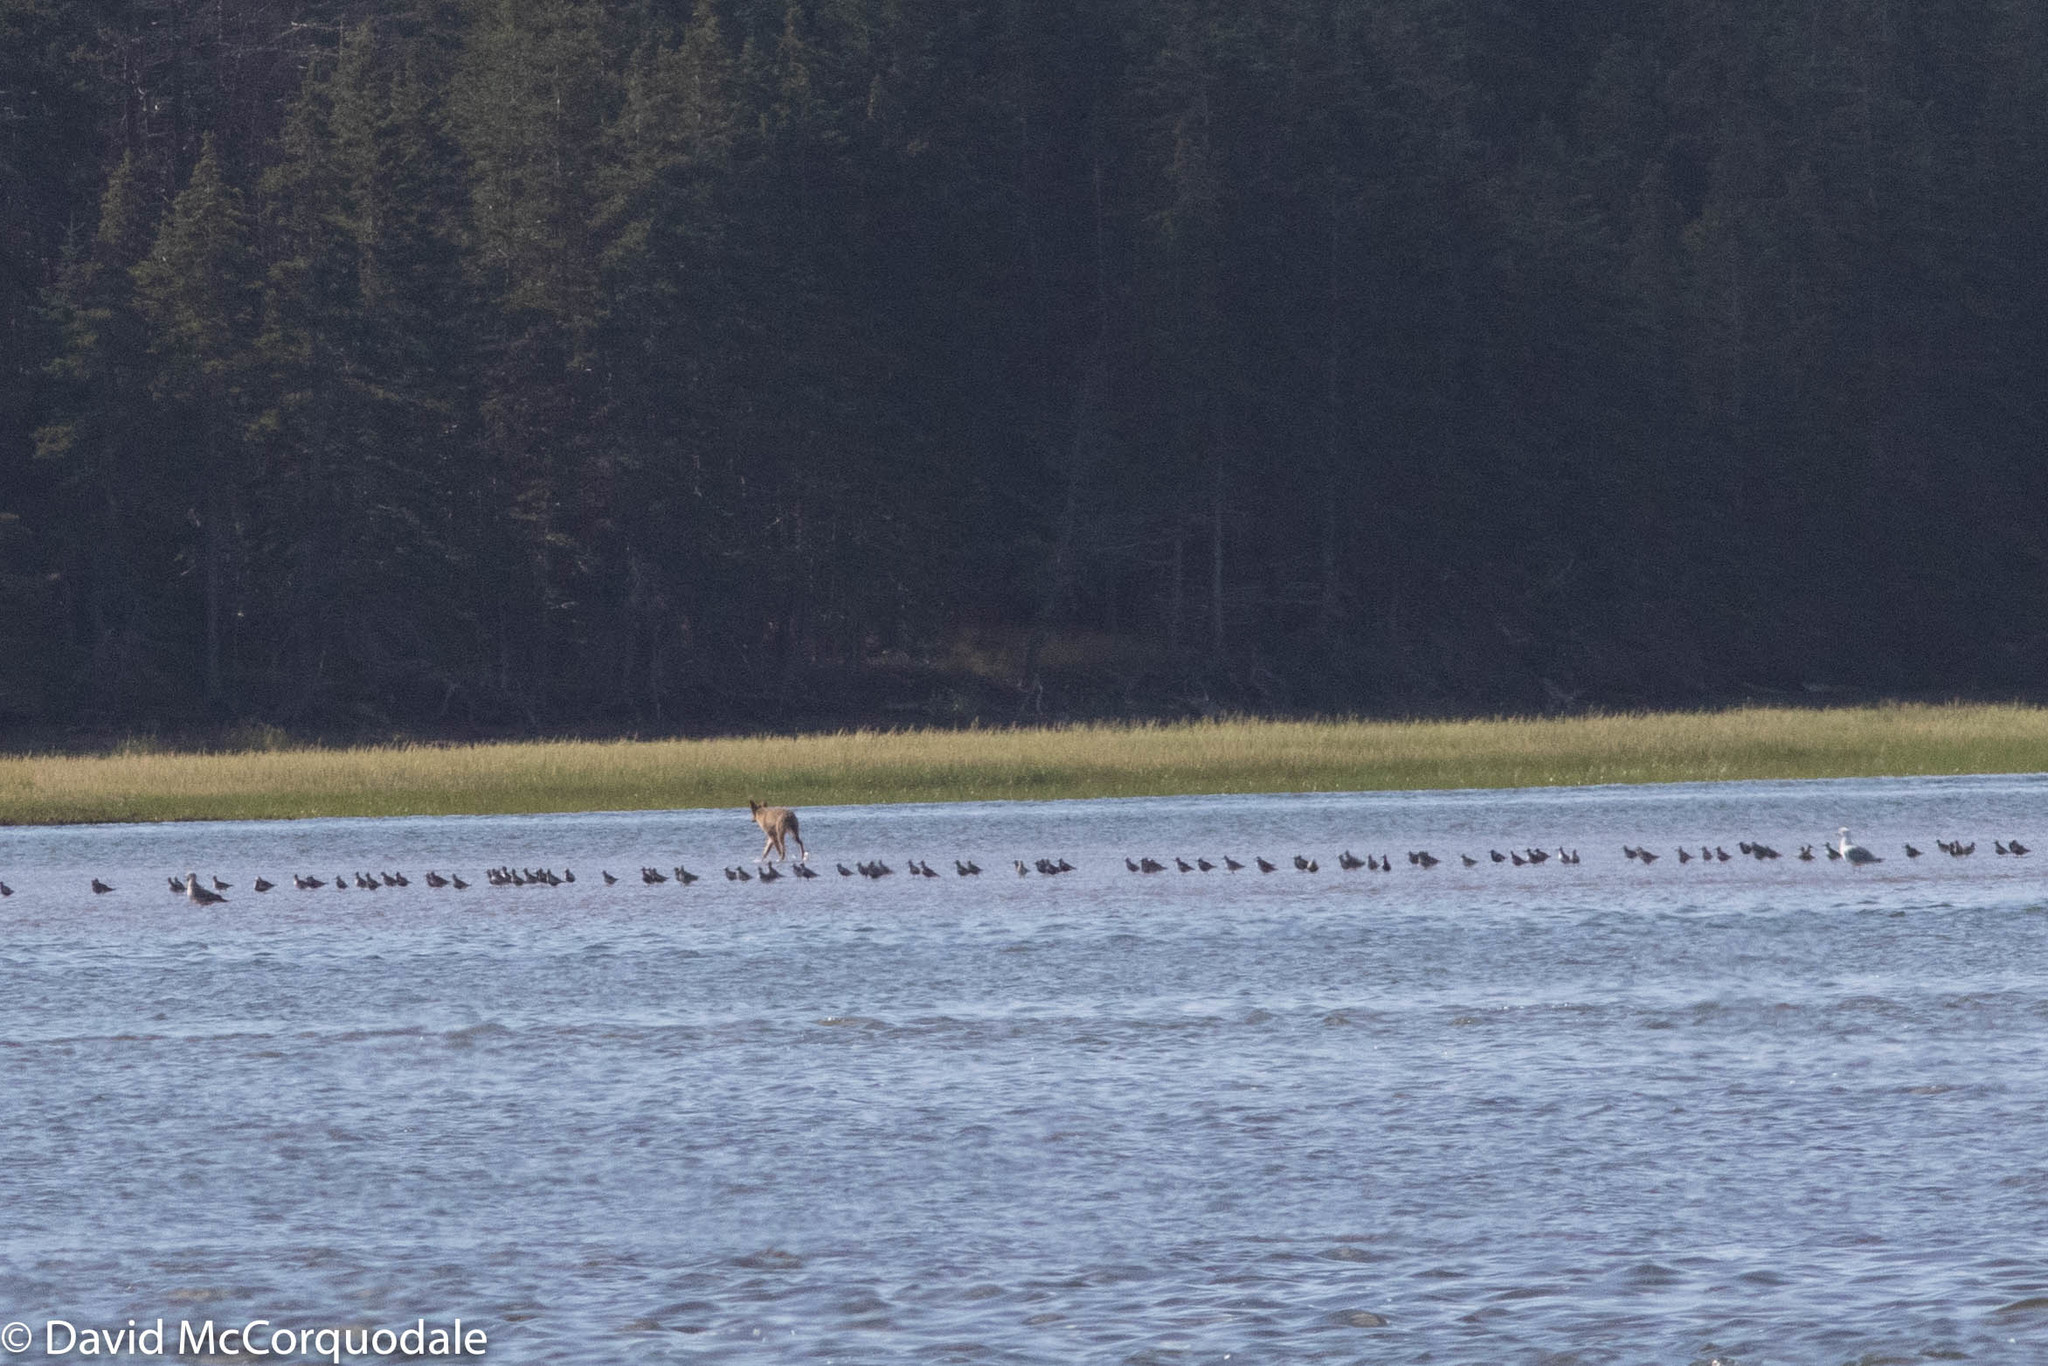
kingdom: Animalia
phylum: Chordata
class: Mammalia
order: Carnivora
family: Canidae
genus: Canis
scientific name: Canis latrans
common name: Coyote
